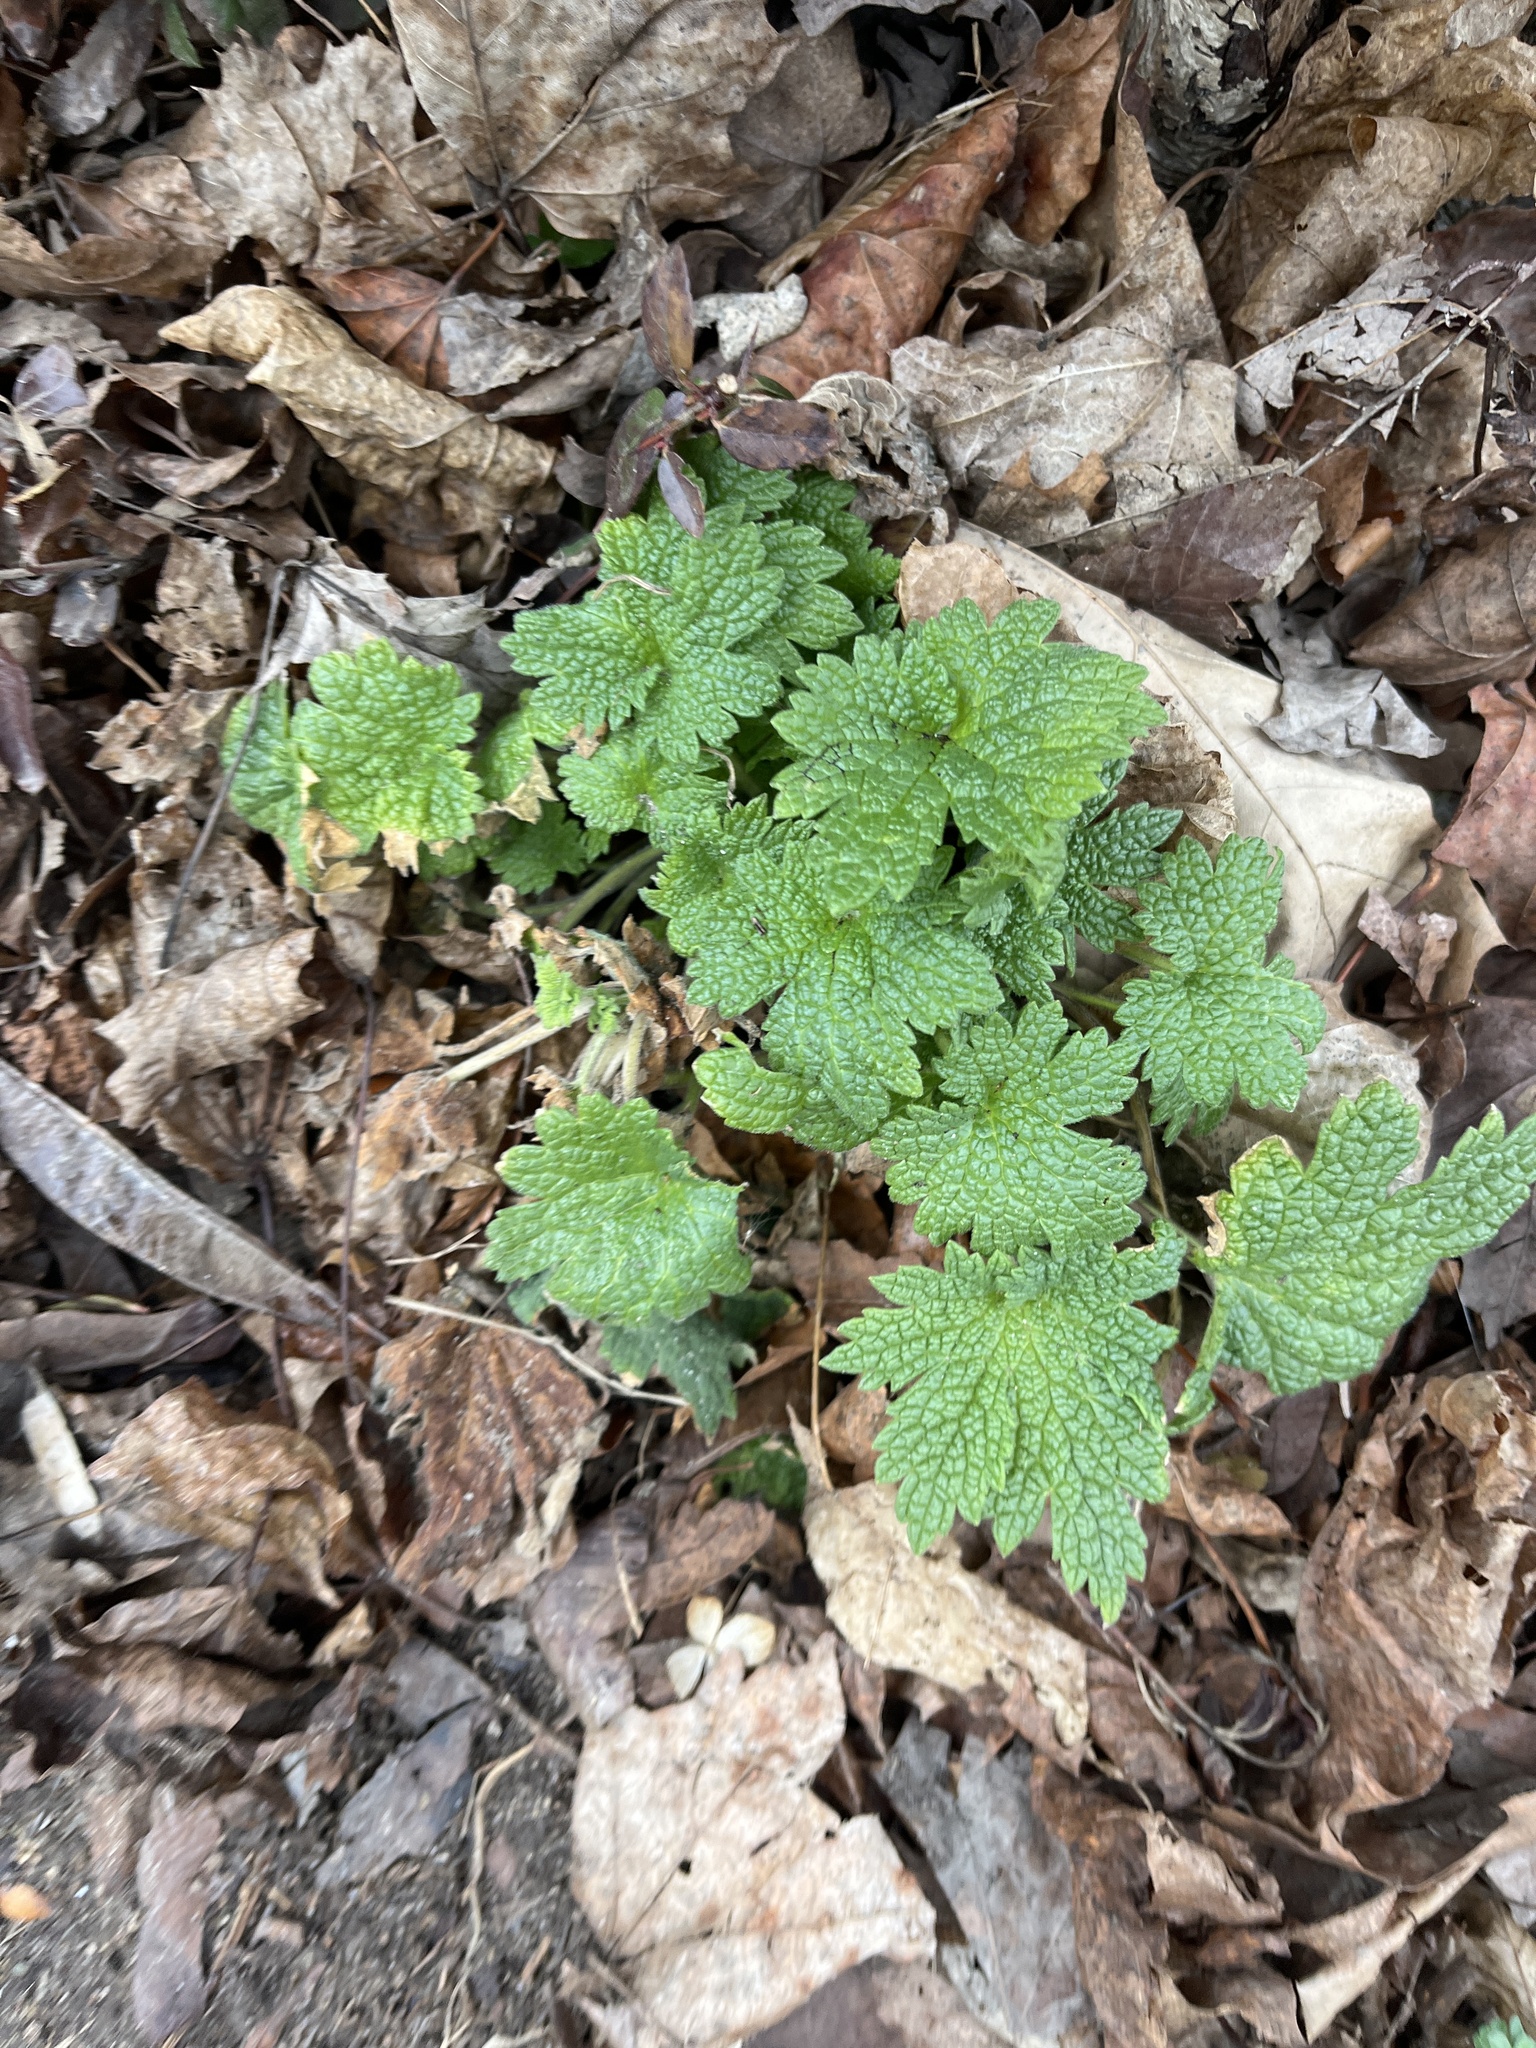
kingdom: Plantae
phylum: Tracheophyta
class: Magnoliopsida
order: Lamiales
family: Lamiaceae
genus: Leonurus
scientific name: Leonurus cardiaca
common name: Motherwort
